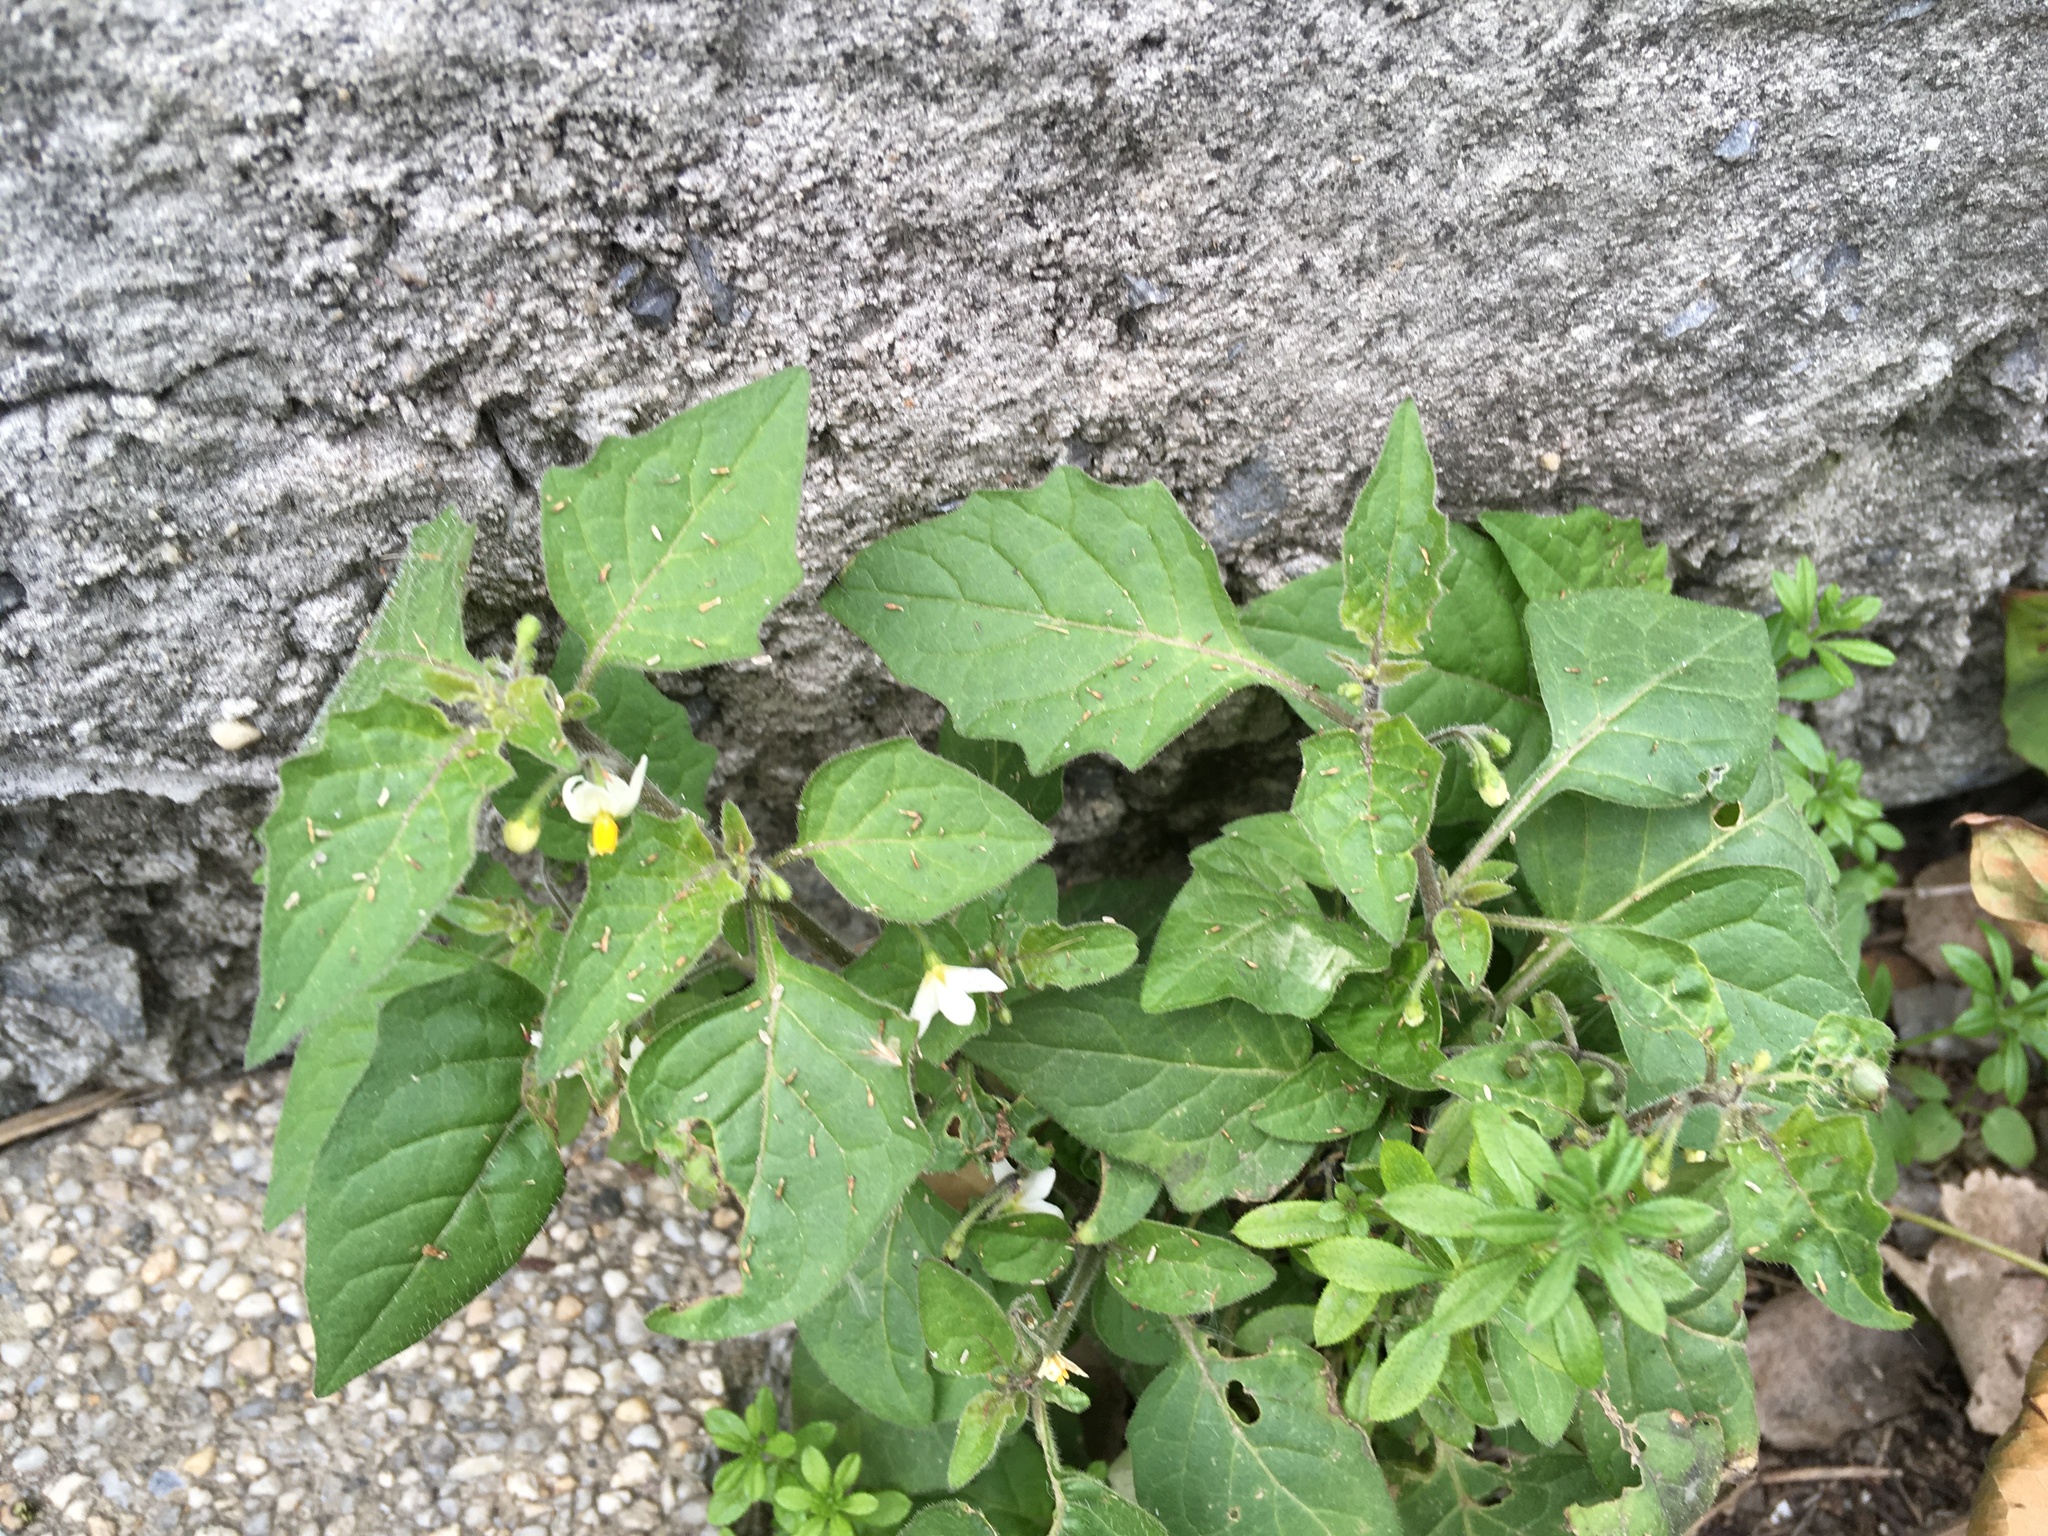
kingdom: Plantae
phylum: Tracheophyta
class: Magnoliopsida
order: Solanales
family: Solanaceae
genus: Solanum
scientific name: Solanum nigrum
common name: Black nightshade
